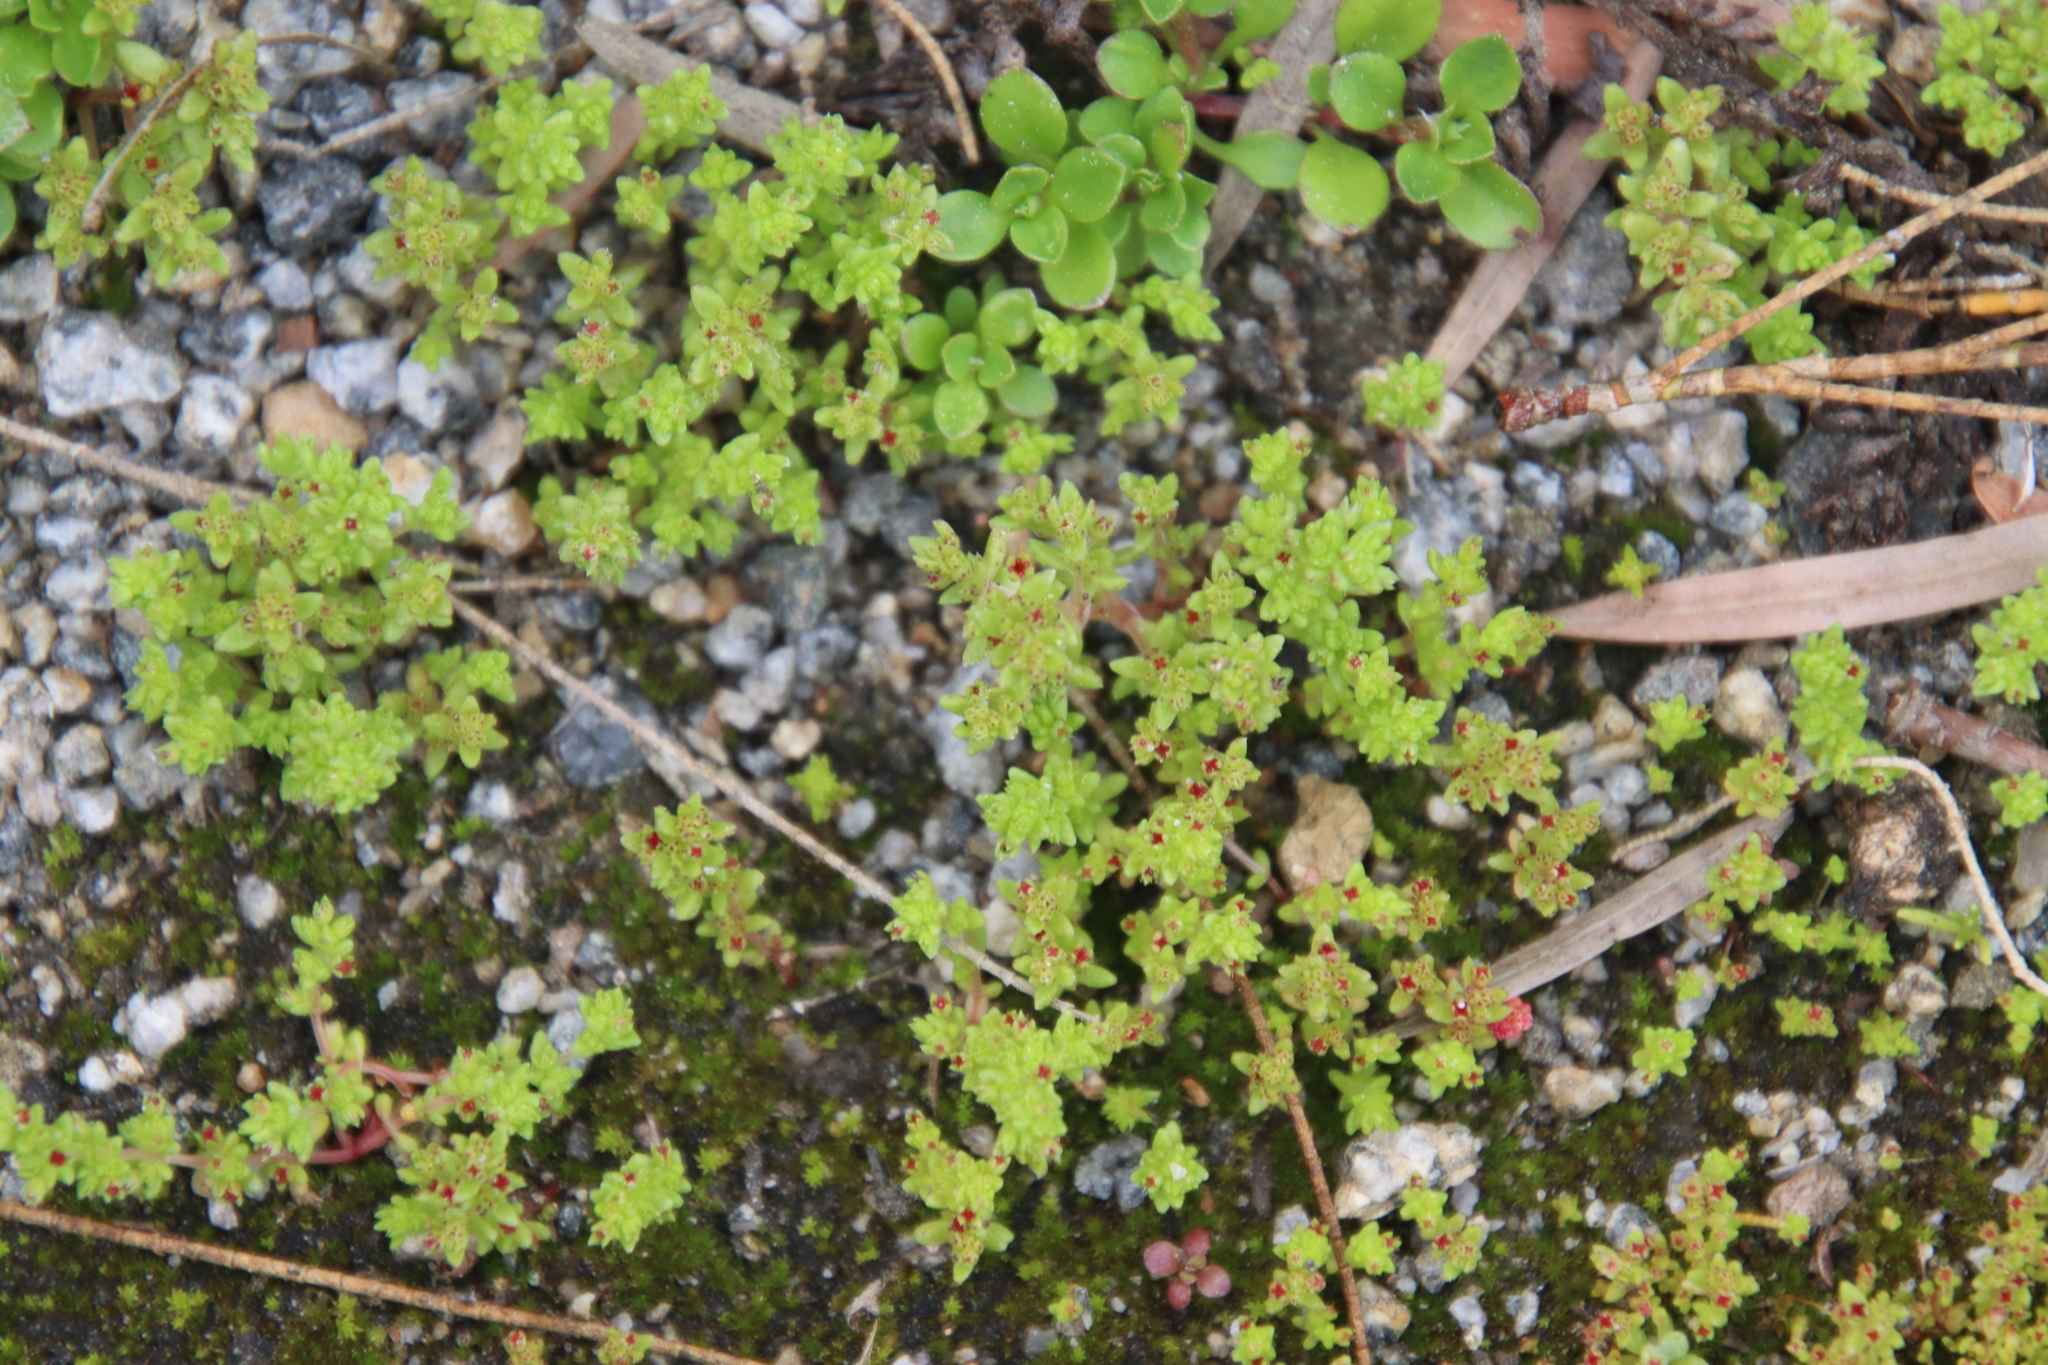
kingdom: Plantae
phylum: Tracheophyta
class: Magnoliopsida
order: Saxifragales
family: Crassulaceae
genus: Crassula
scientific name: Crassula connata
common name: Erect pygmyweed
